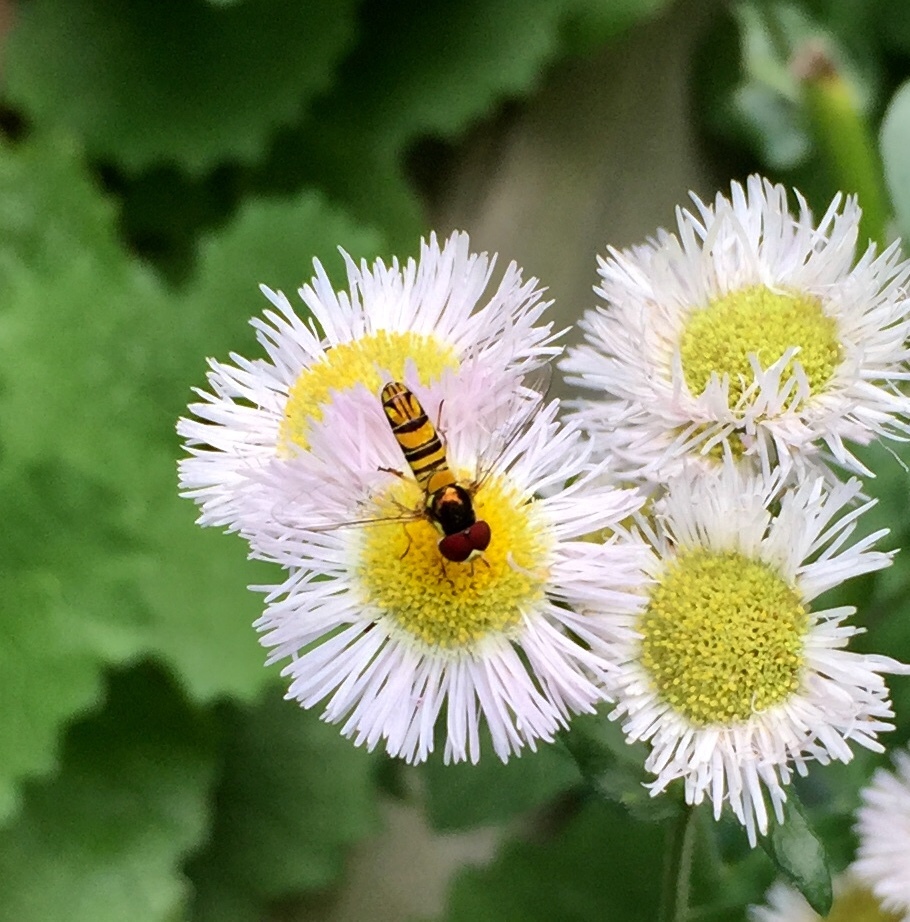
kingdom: Animalia
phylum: Arthropoda
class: Insecta
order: Diptera
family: Syrphidae
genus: Allograpta
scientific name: Allograpta obliqua
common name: Common oblique syrphid
